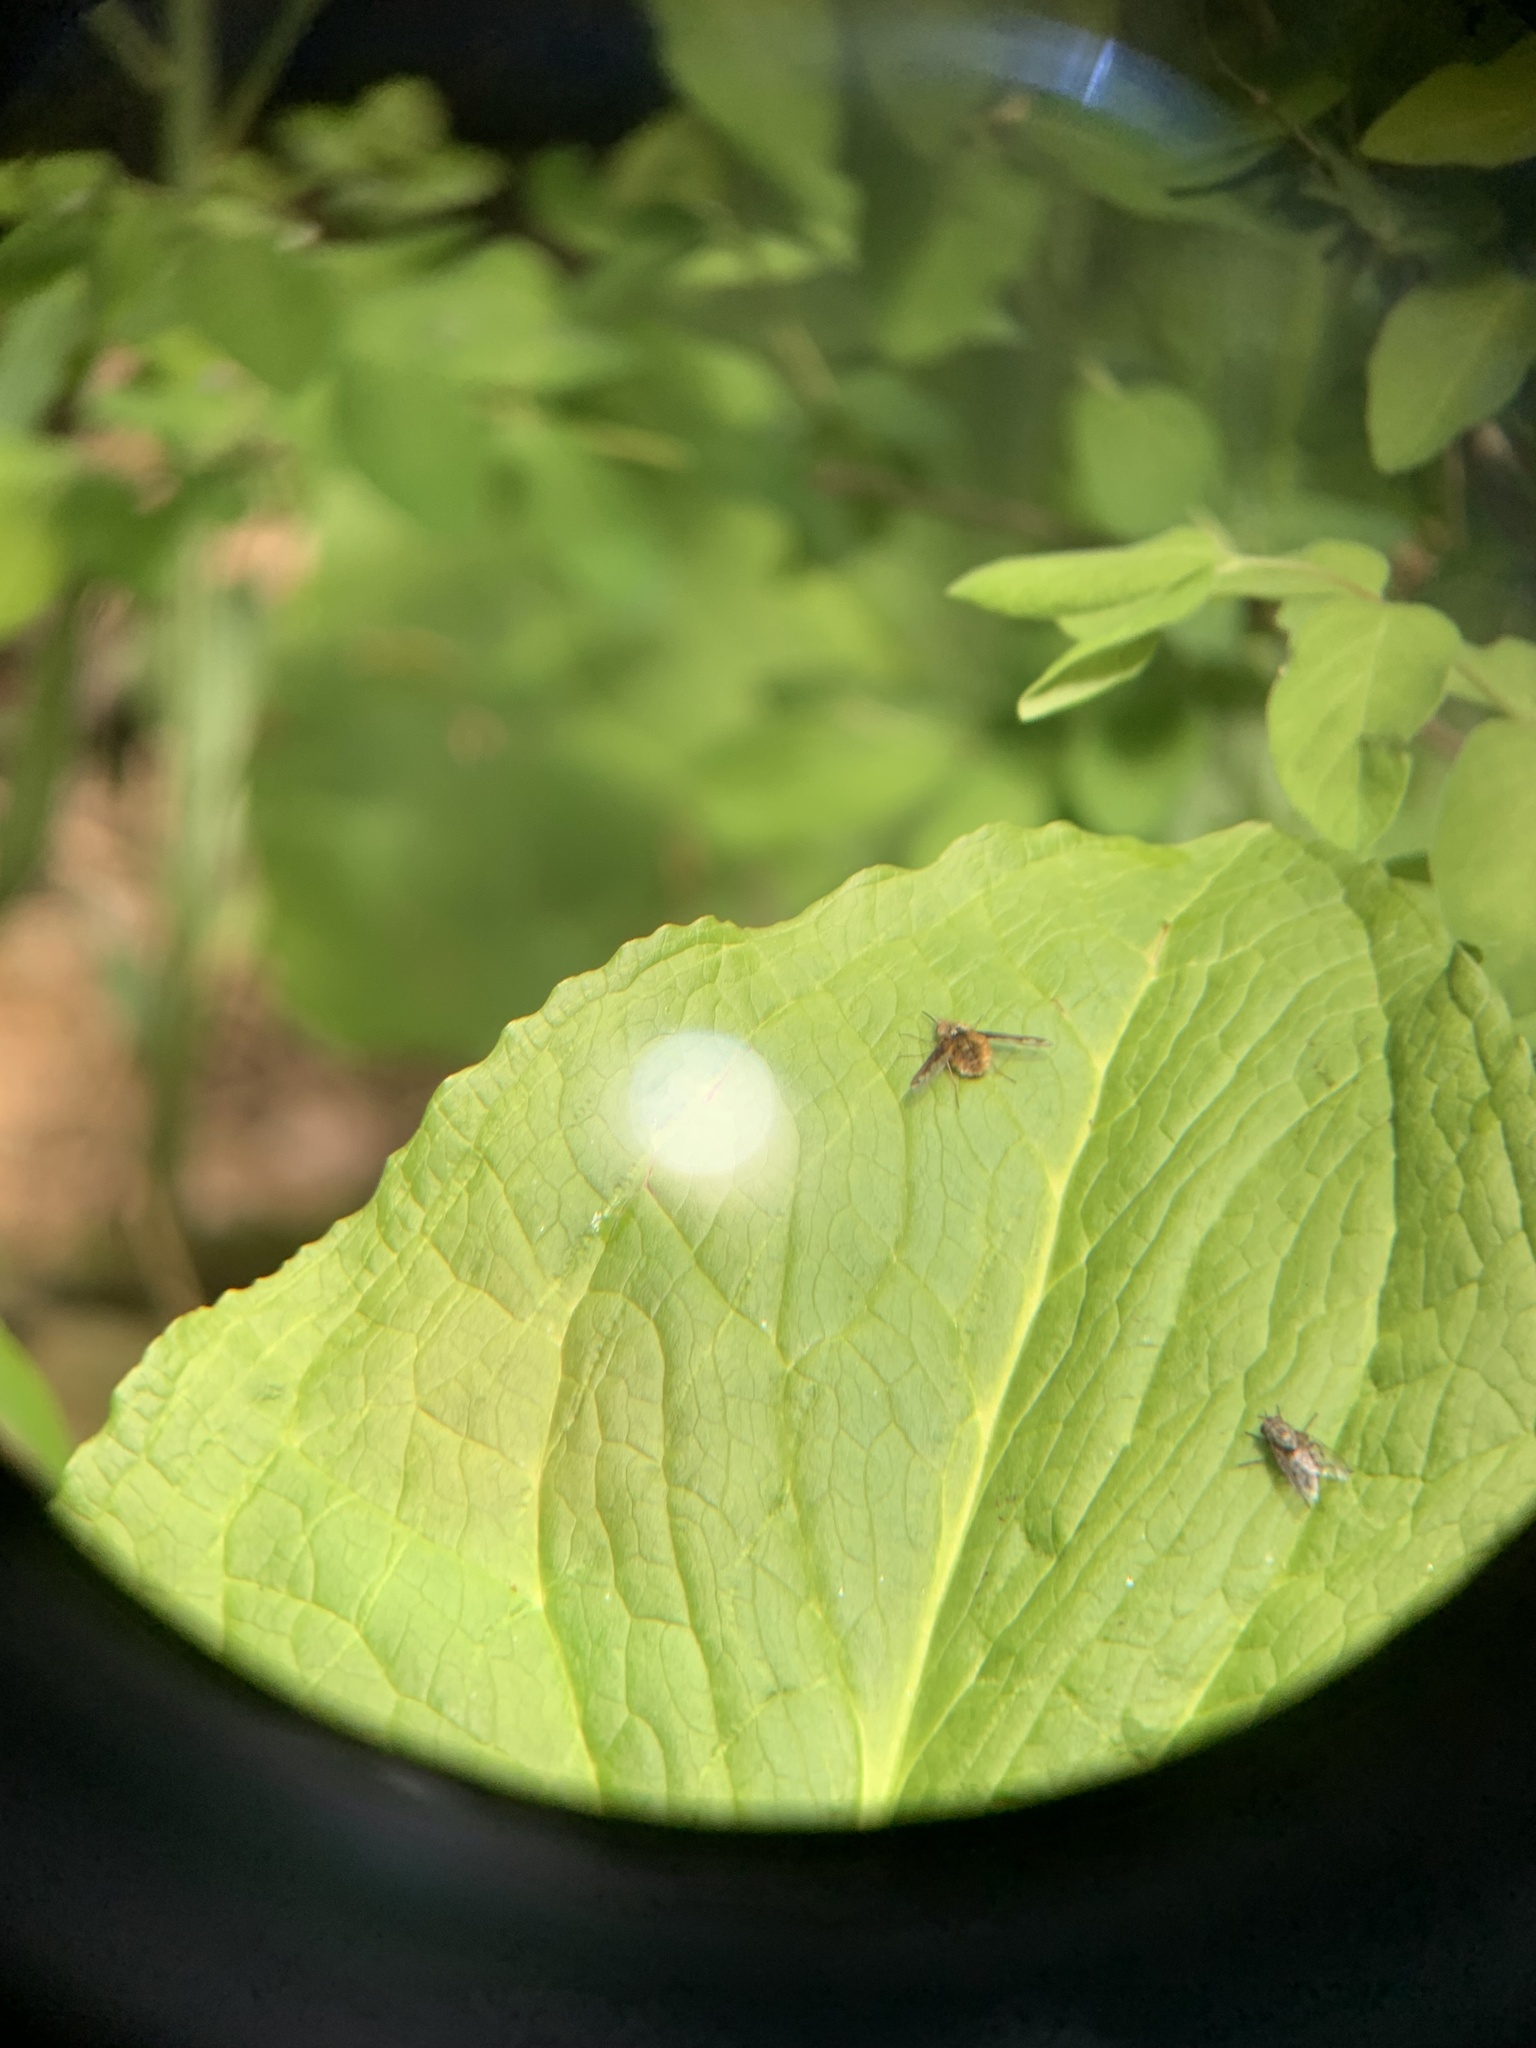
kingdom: Animalia
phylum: Arthropoda
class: Insecta
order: Diptera
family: Bombyliidae
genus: Bombylius
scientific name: Bombylius major
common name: Bee fly
